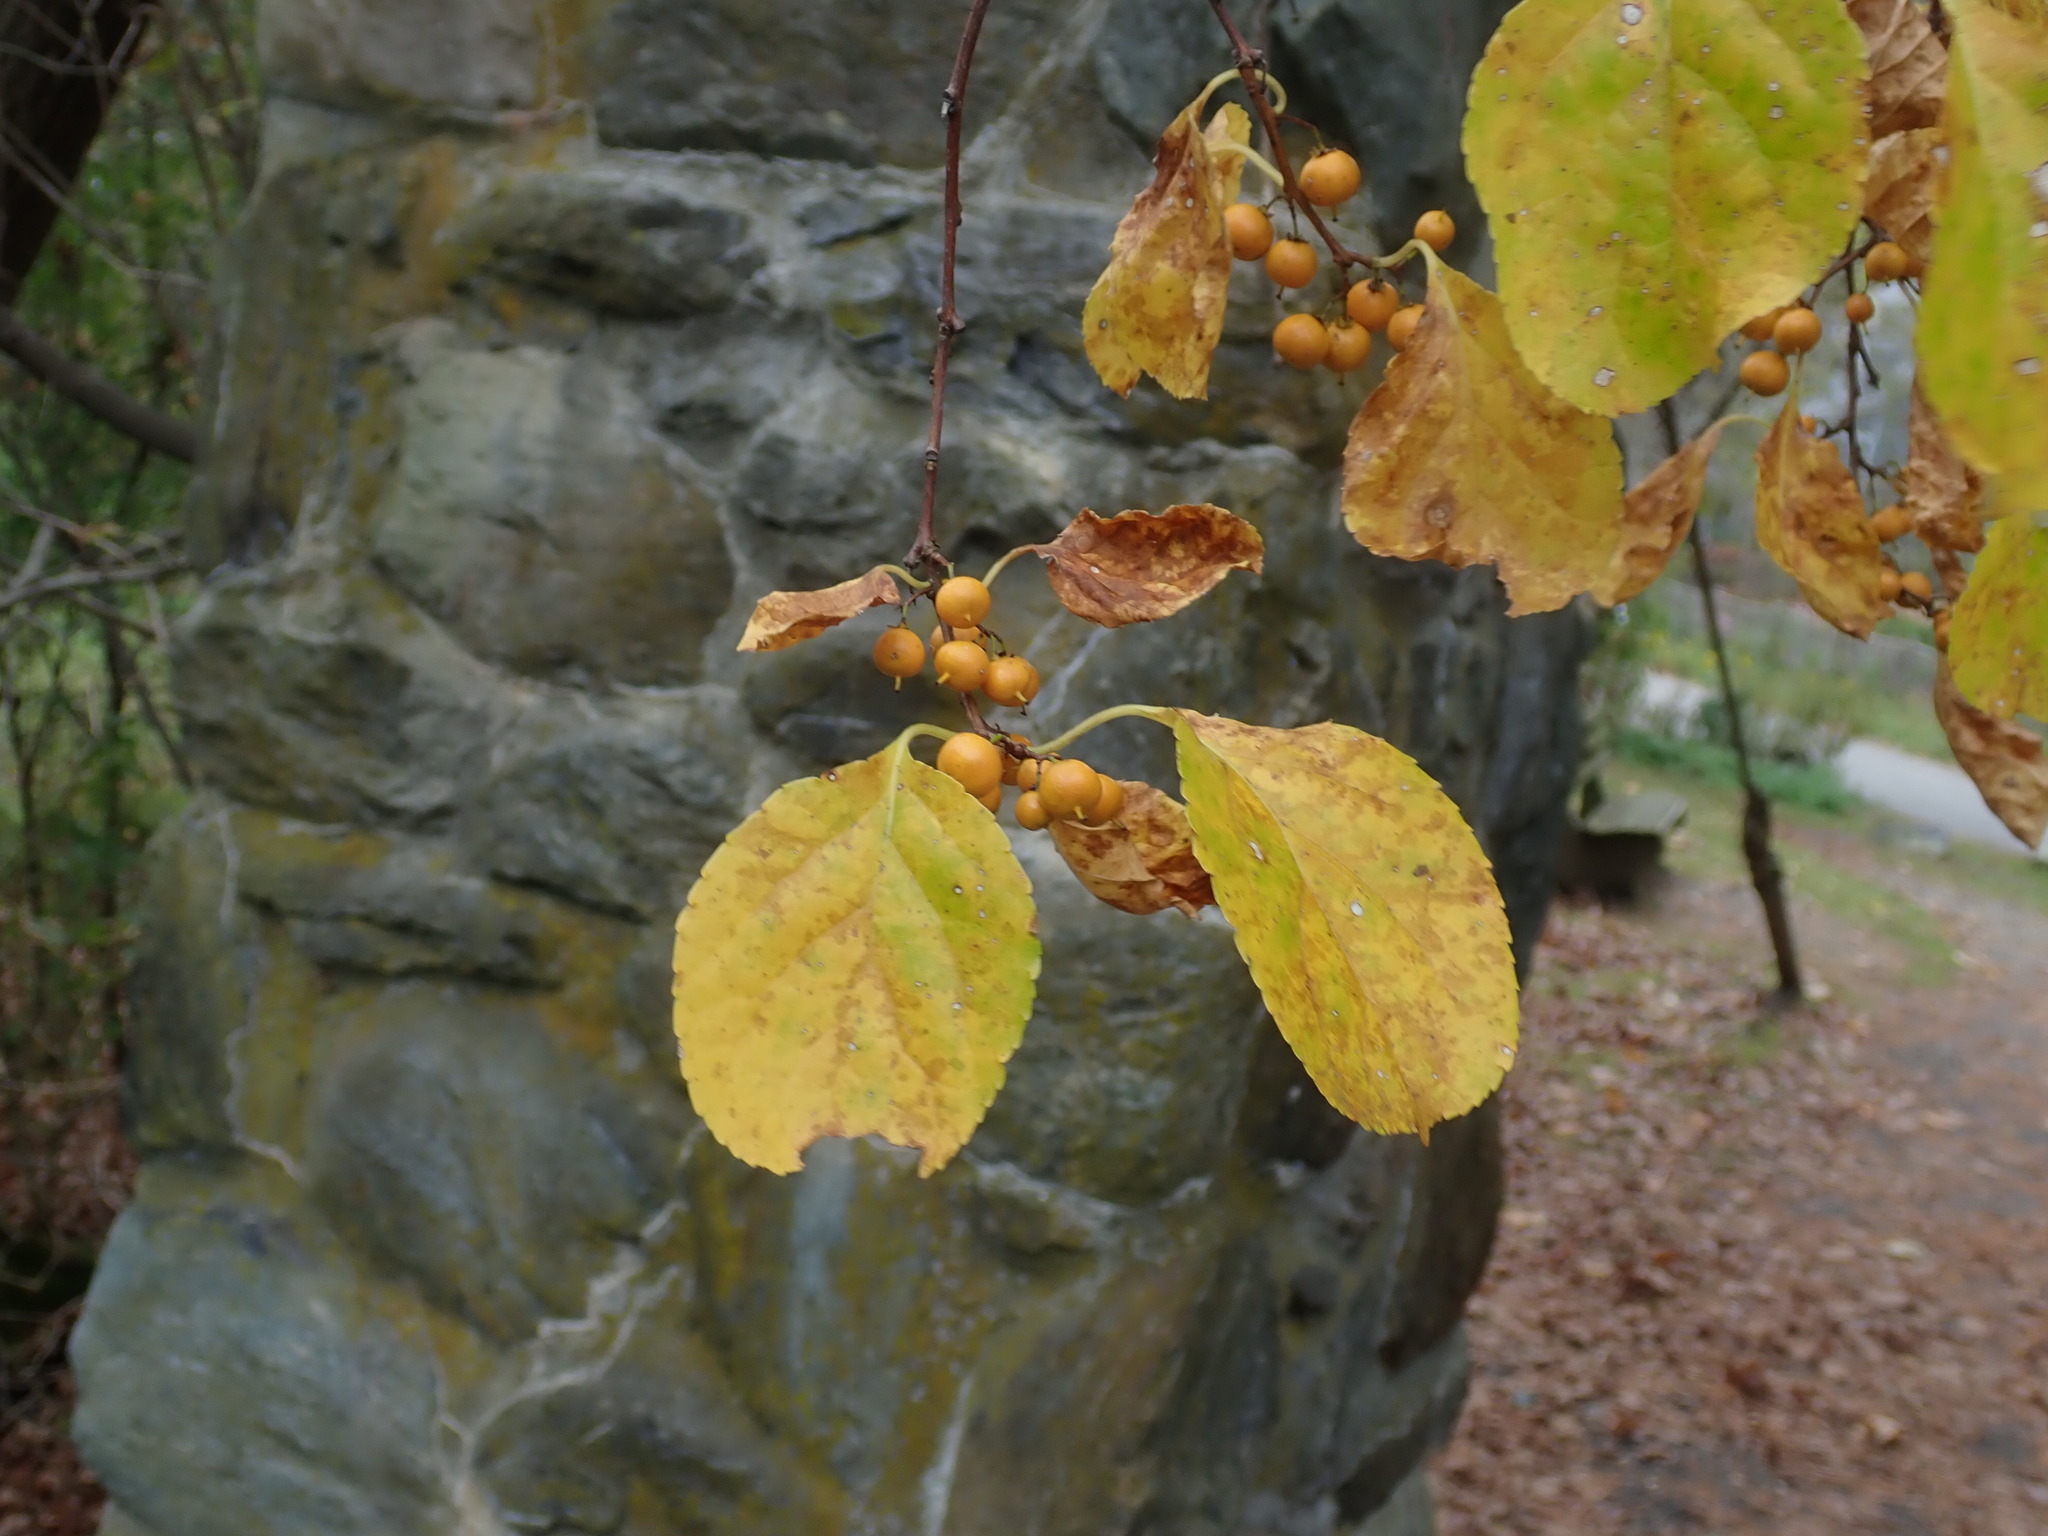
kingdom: Plantae
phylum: Tracheophyta
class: Magnoliopsida
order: Celastrales
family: Celastraceae
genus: Celastrus
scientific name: Celastrus orbiculatus
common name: Oriental bittersweet
